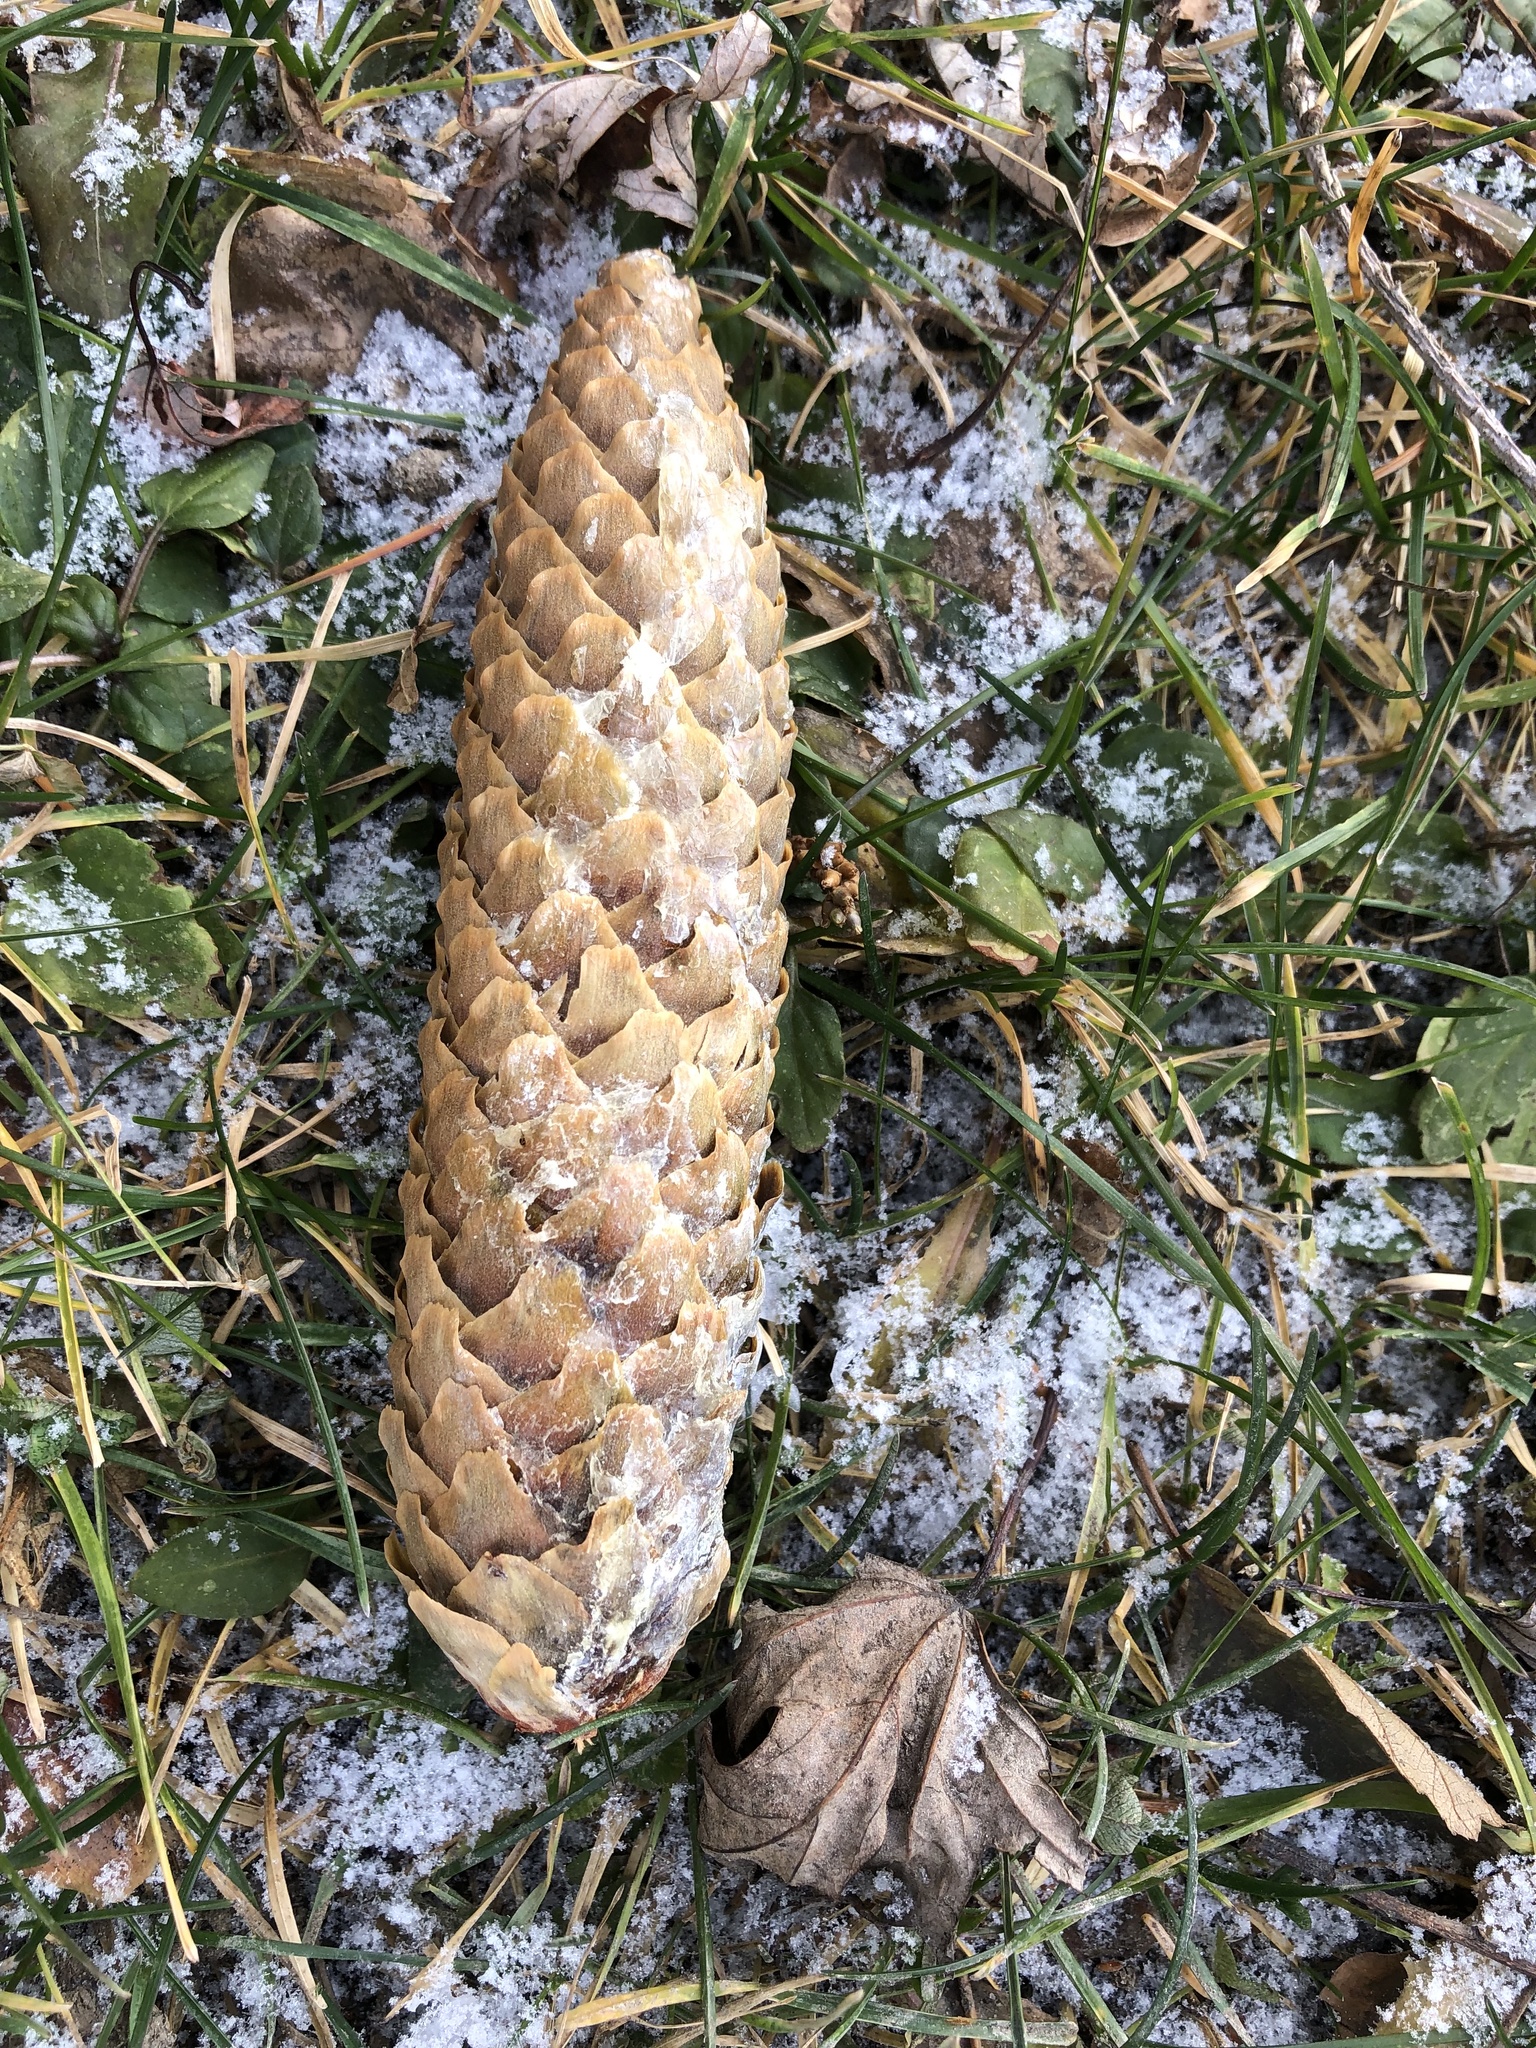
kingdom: Plantae
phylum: Tracheophyta
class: Pinopsida
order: Pinales
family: Pinaceae
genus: Picea
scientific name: Picea abies
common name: Norway spruce
